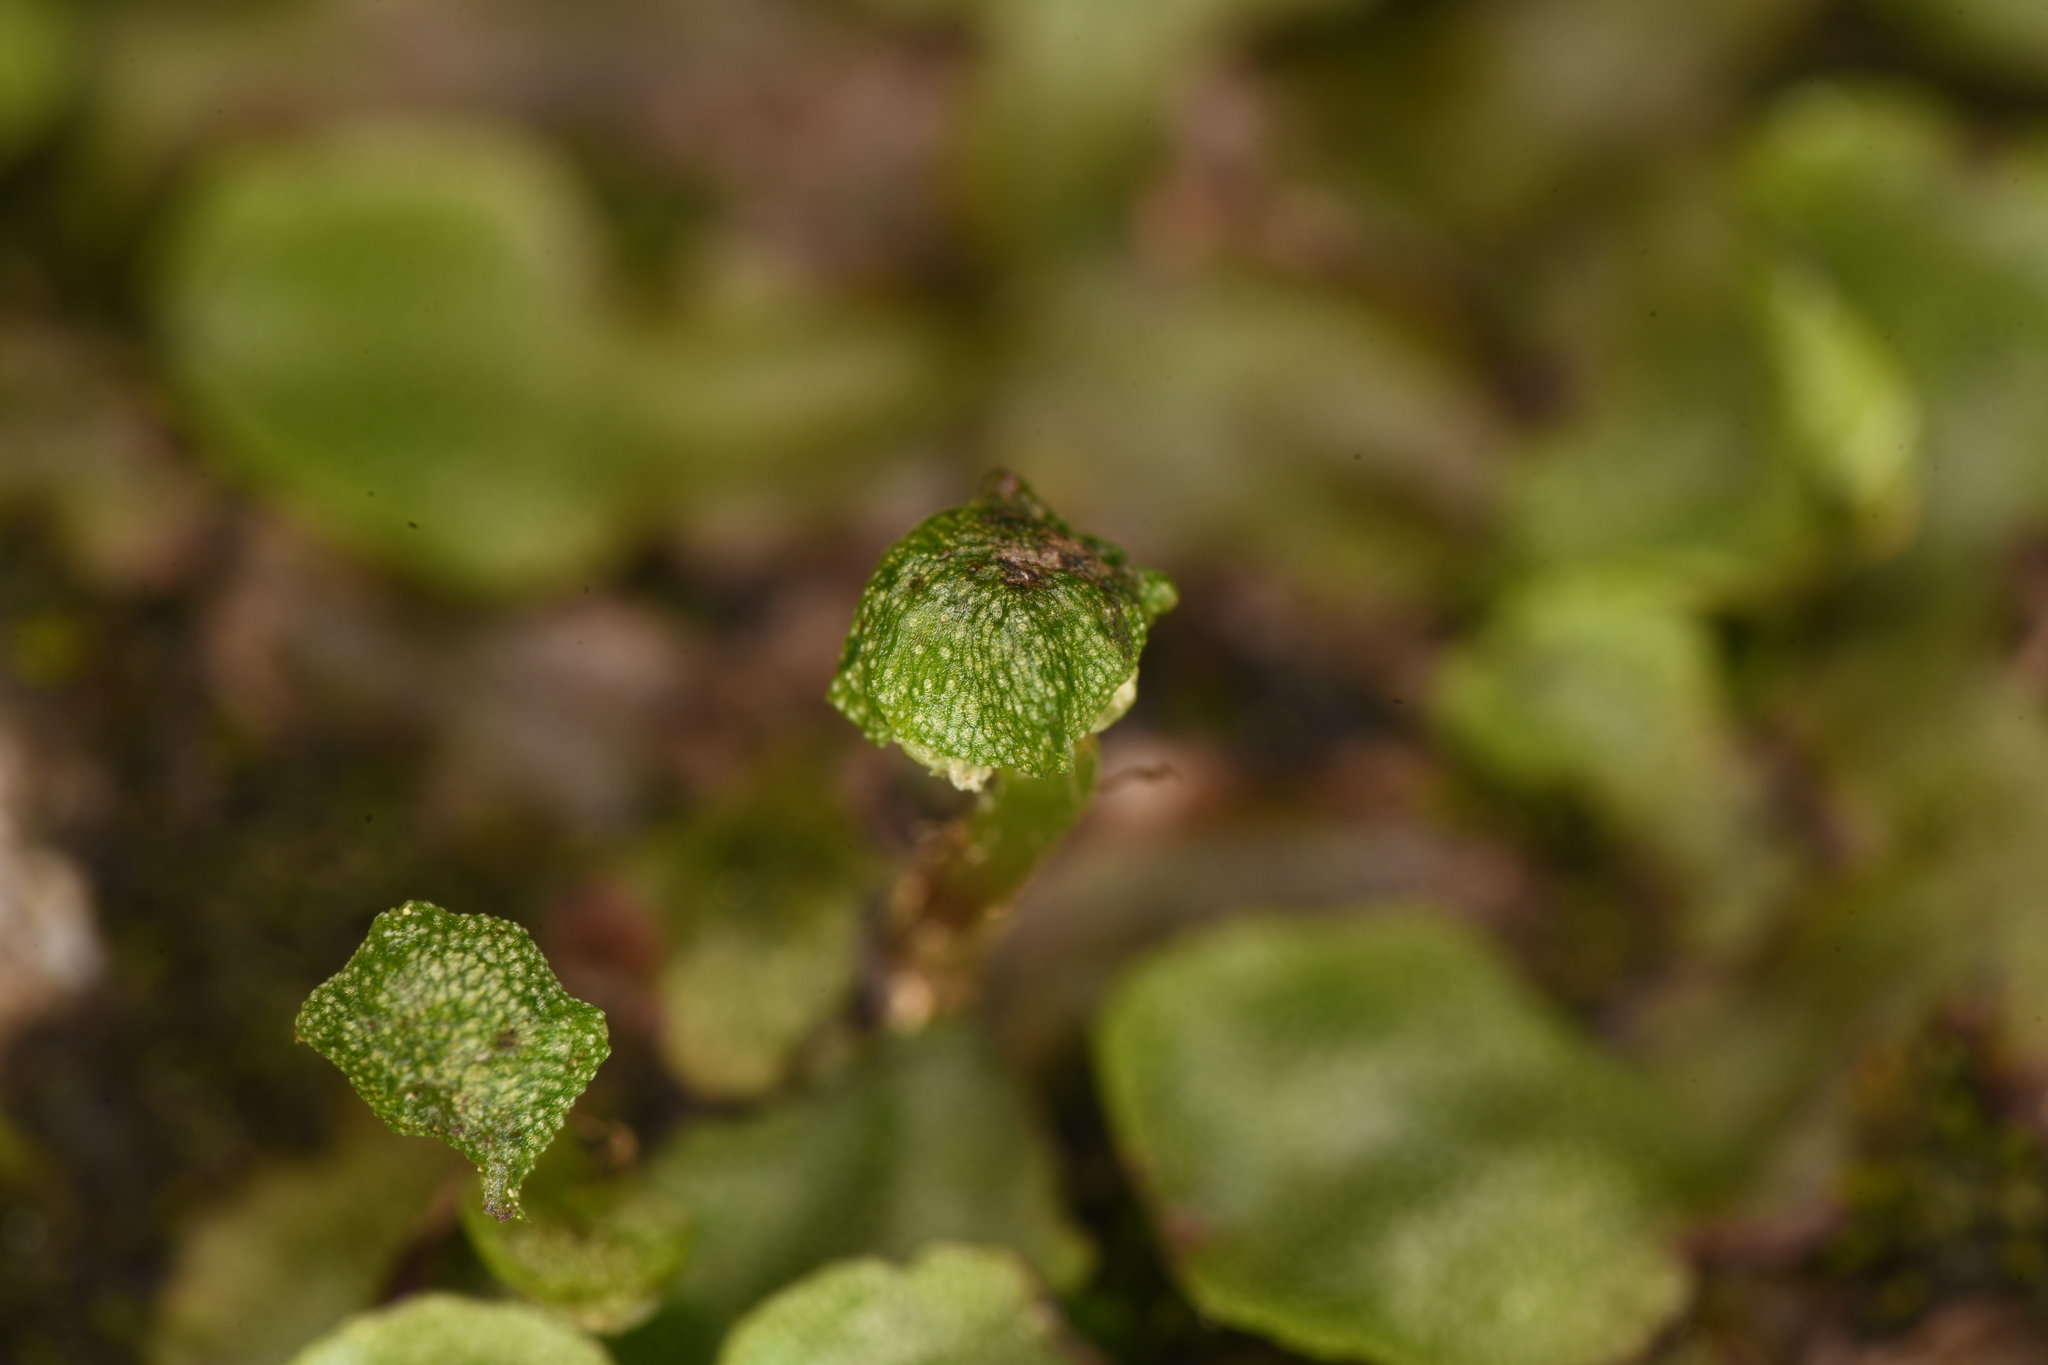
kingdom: Plantae
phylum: Marchantiophyta
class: Marchantiopsida
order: Marchantiales
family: Marchantiaceae
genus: Marchantia
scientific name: Marchantia quadrata
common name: Narrow mushroom-headed liverwort
